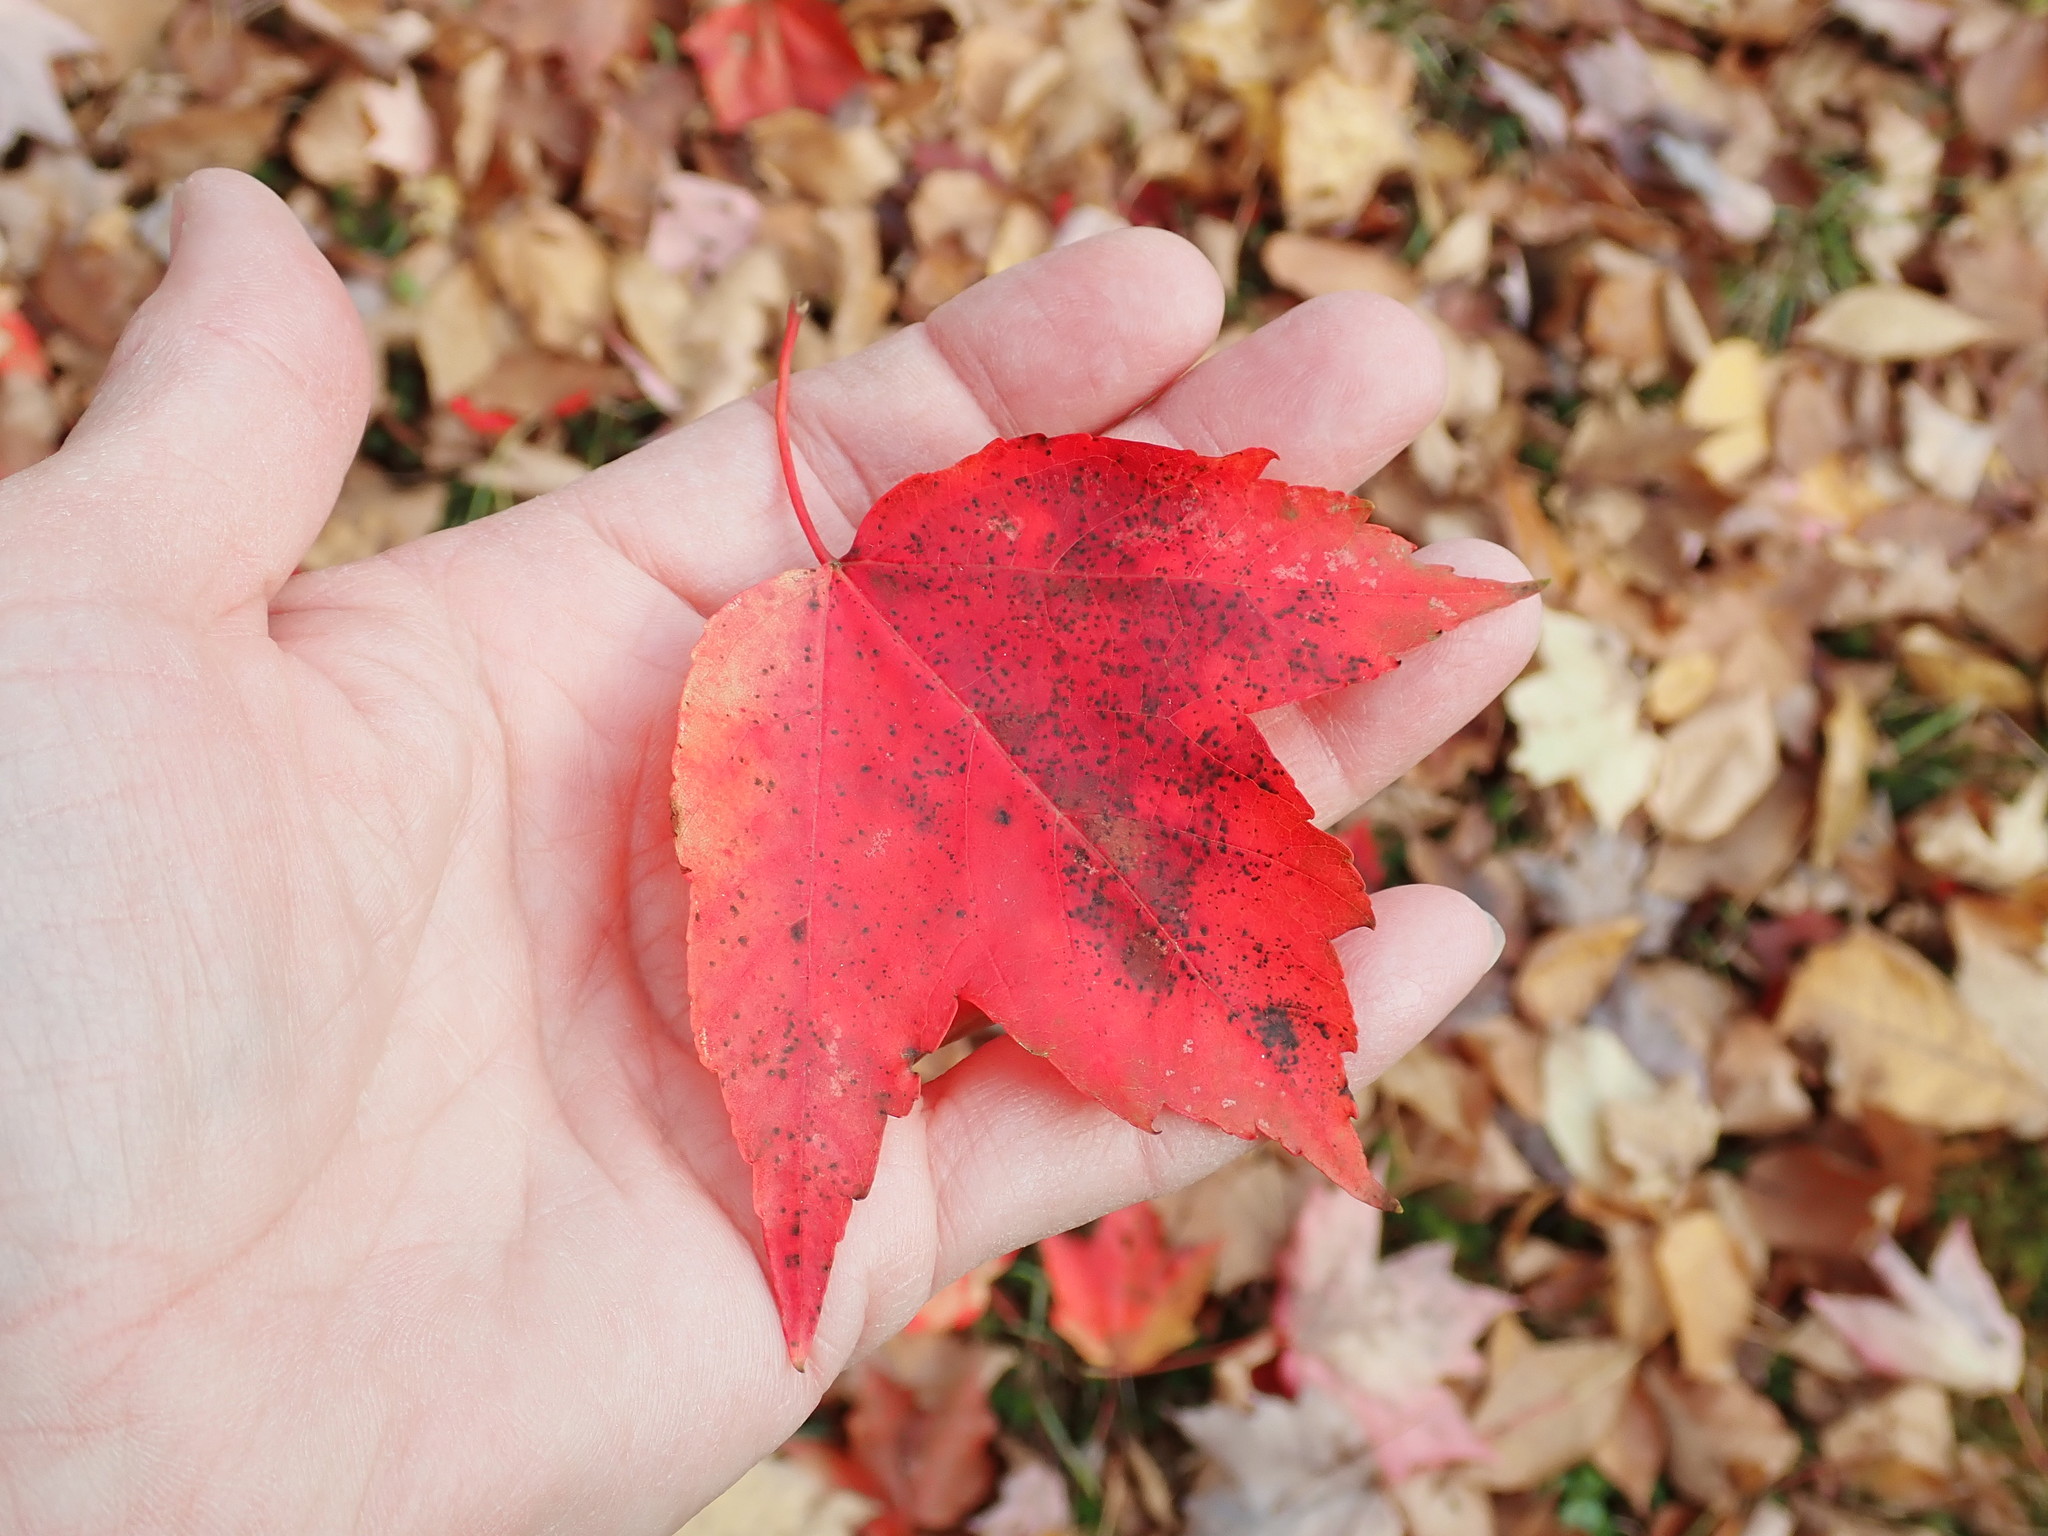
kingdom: Plantae
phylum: Tracheophyta
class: Magnoliopsida
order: Sapindales
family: Sapindaceae
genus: Acer
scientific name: Acer rubrum
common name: Red maple
